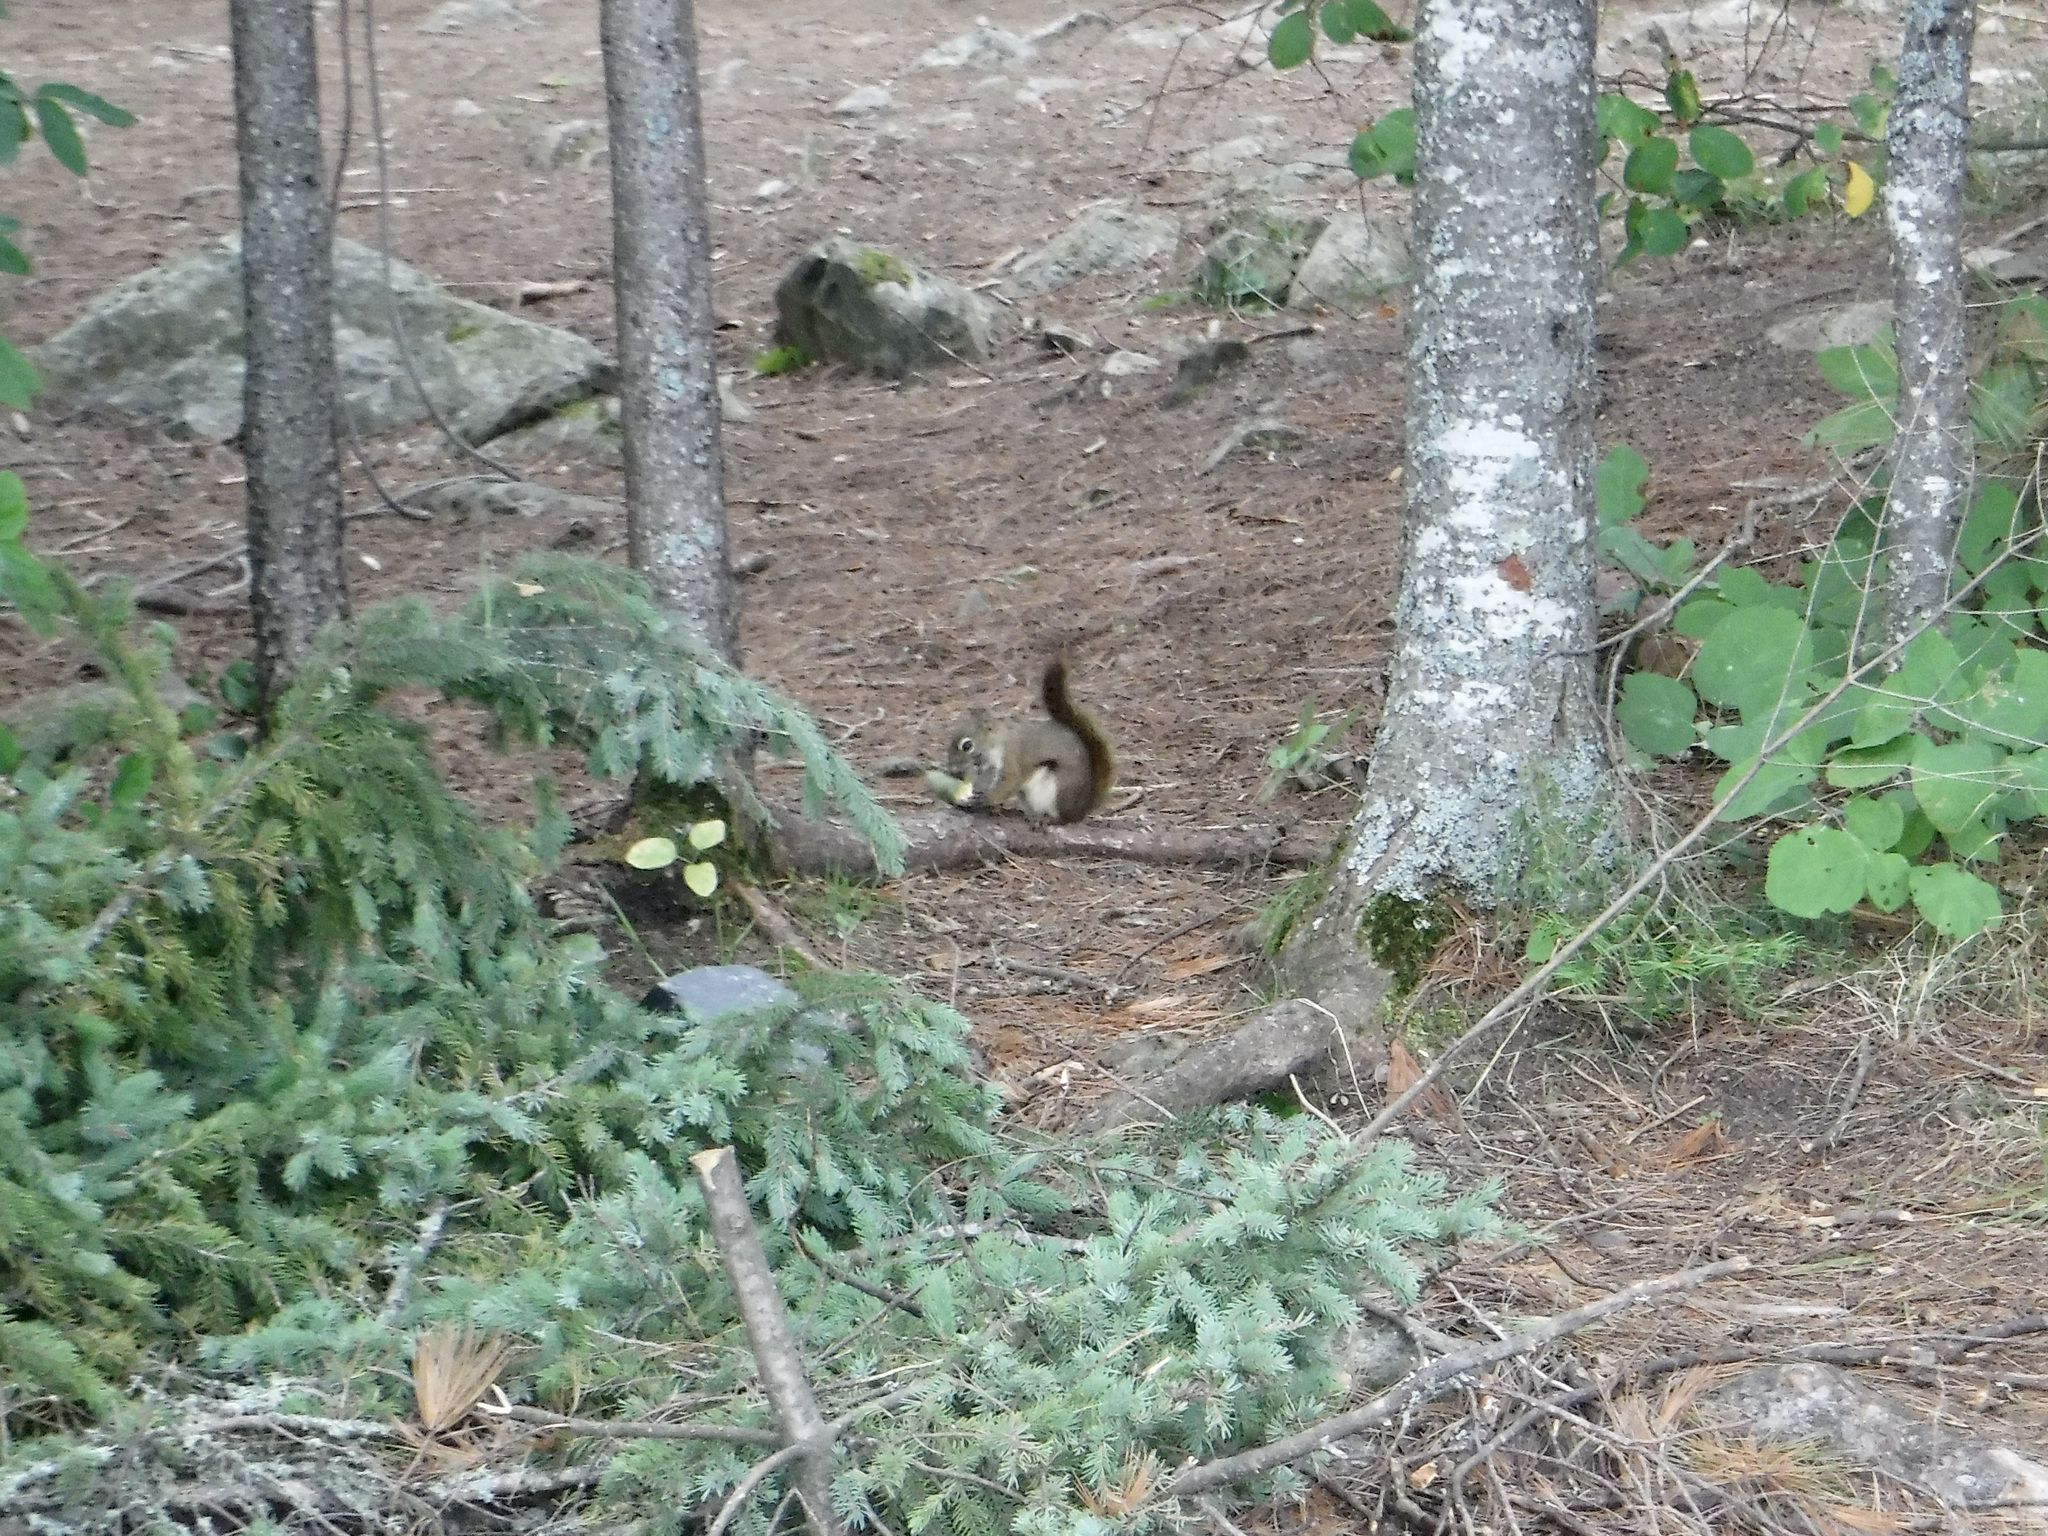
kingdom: Animalia
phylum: Chordata
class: Mammalia
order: Rodentia
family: Sciuridae
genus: Tamiasciurus
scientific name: Tamiasciurus hudsonicus
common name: Red squirrel
